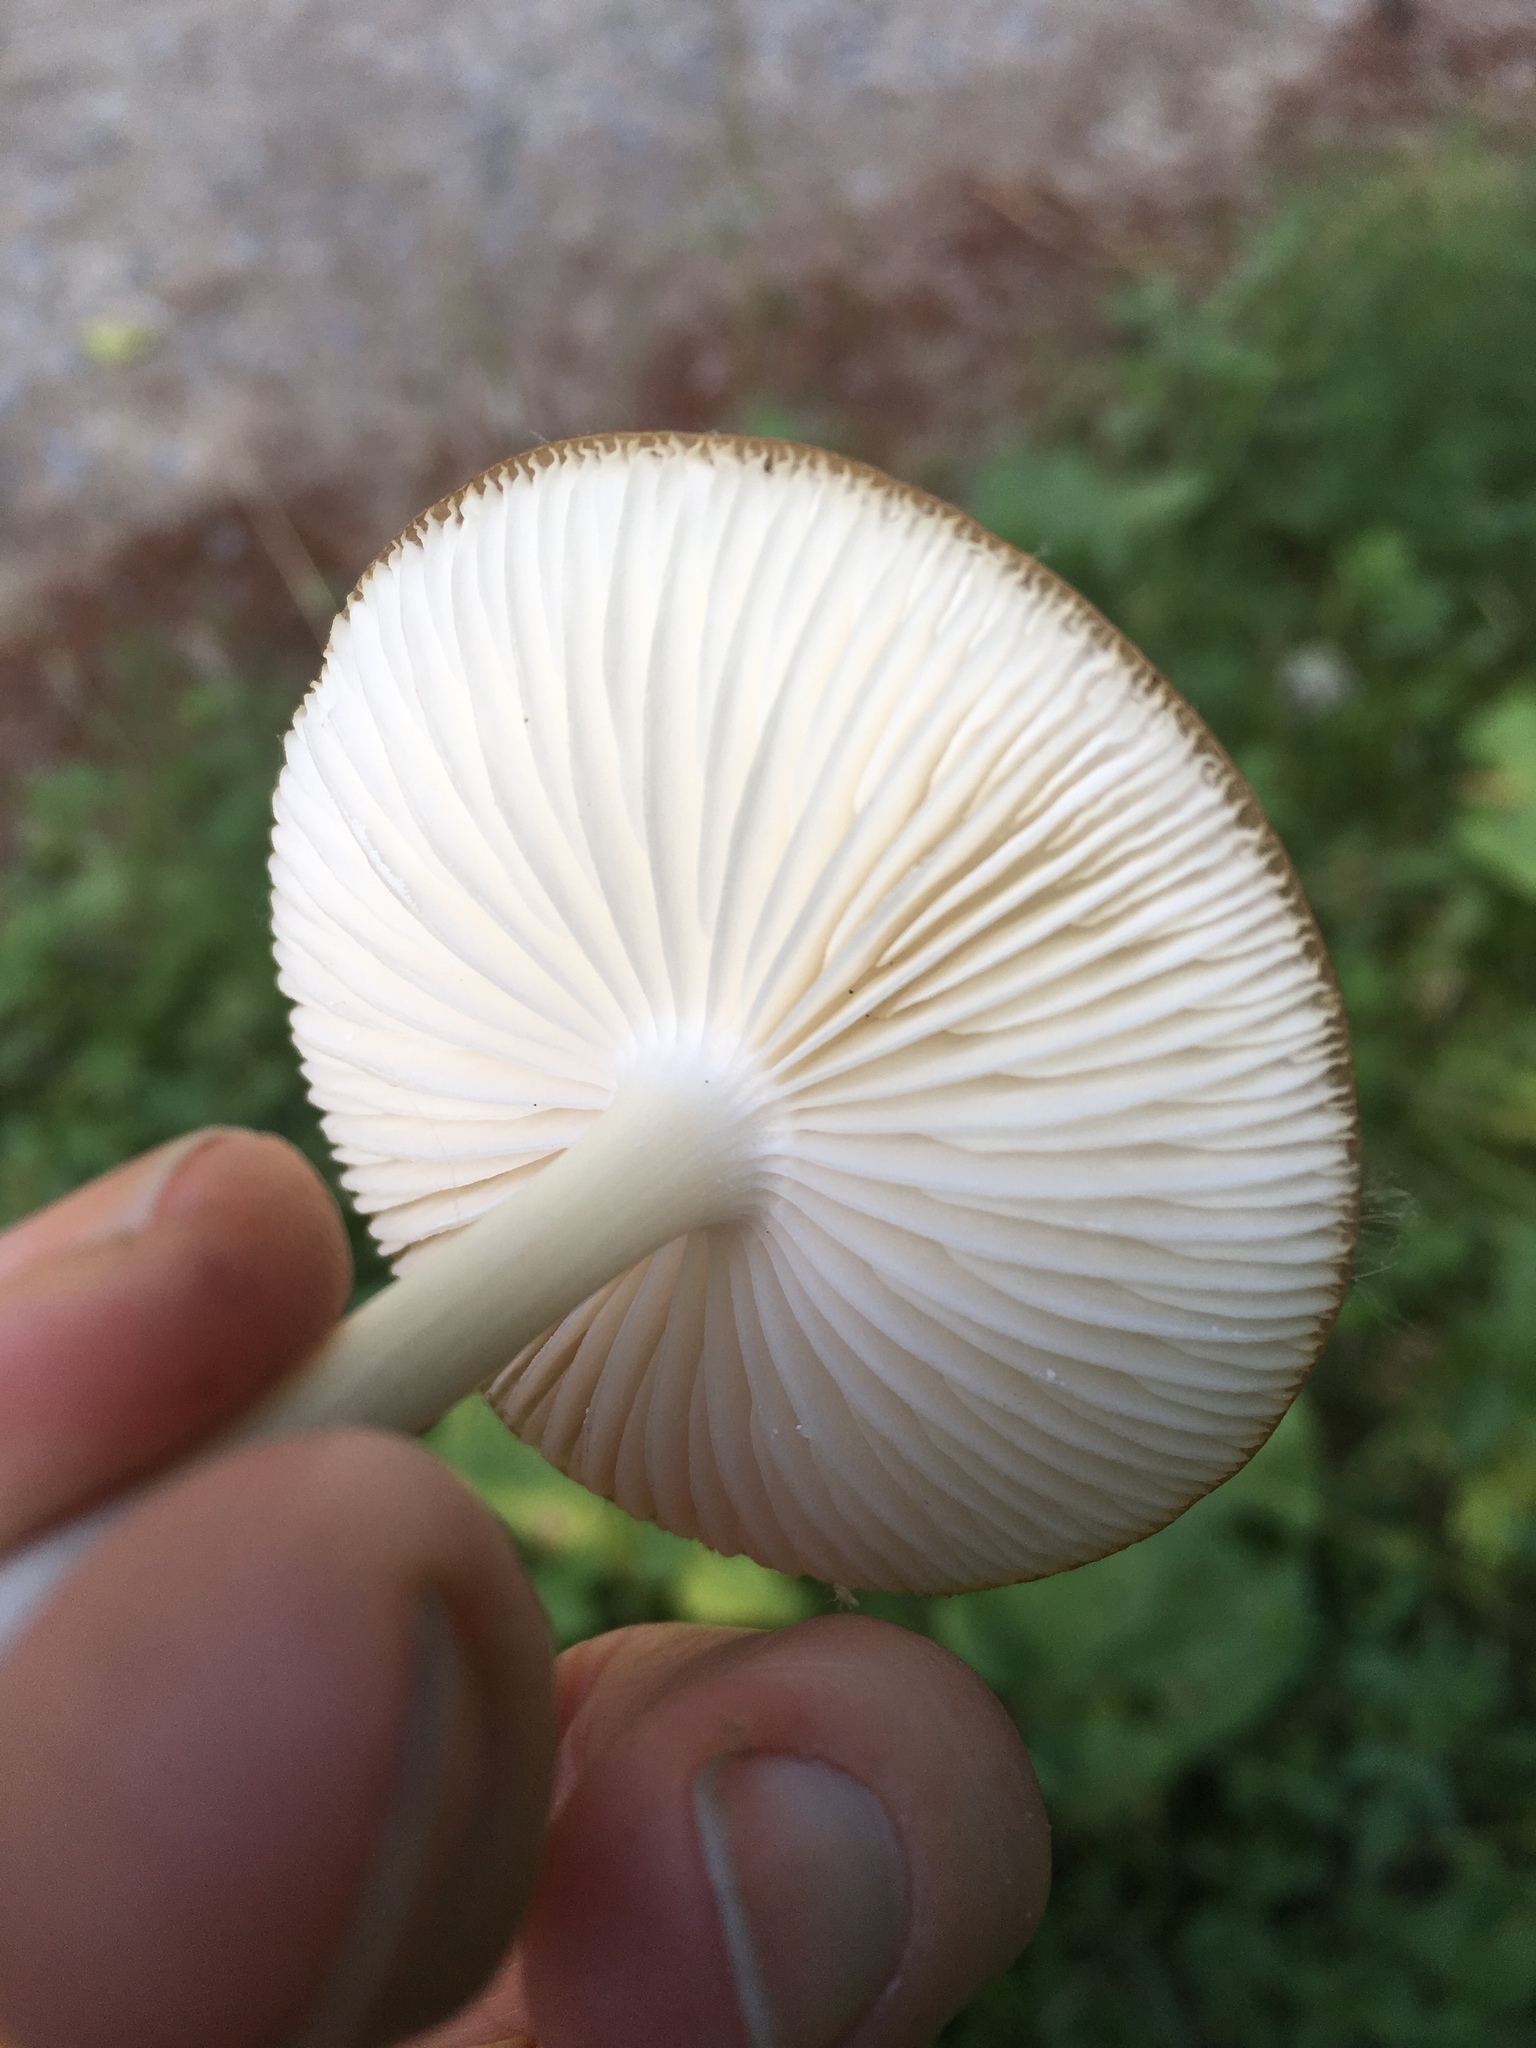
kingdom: Fungi
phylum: Basidiomycota
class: Agaricomycetes
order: Agaricales
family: Physalacriaceae
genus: Hymenopellis
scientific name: Hymenopellis radicata
